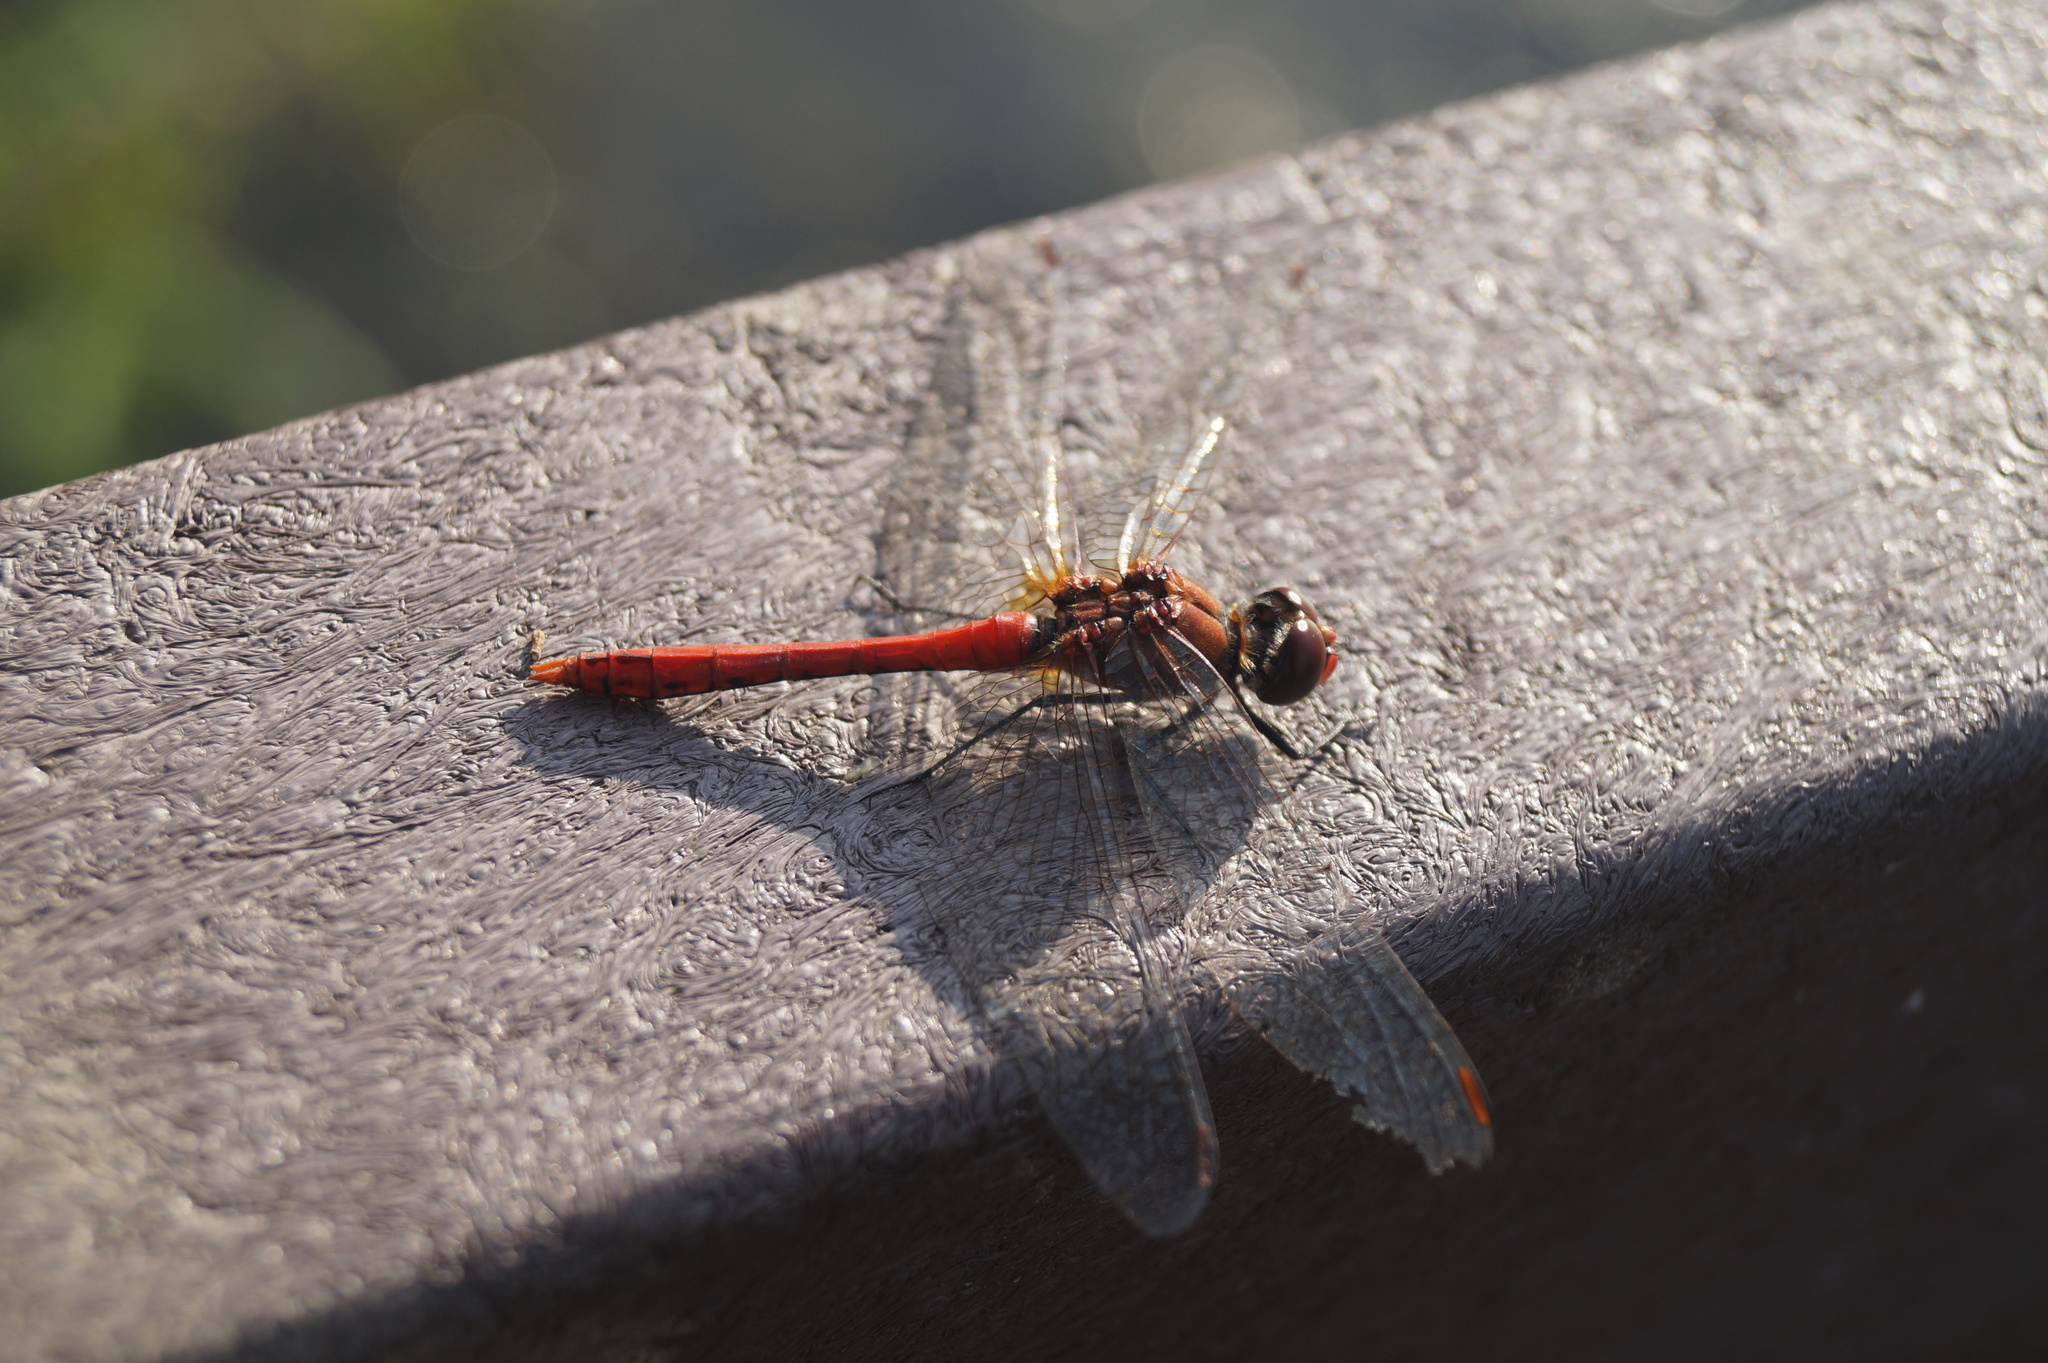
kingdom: Animalia
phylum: Arthropoda
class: Insecta
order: Odonata
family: Libellulidae
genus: Sympetrum
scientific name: Sympetrum sanguineum
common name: Ruddy darter
